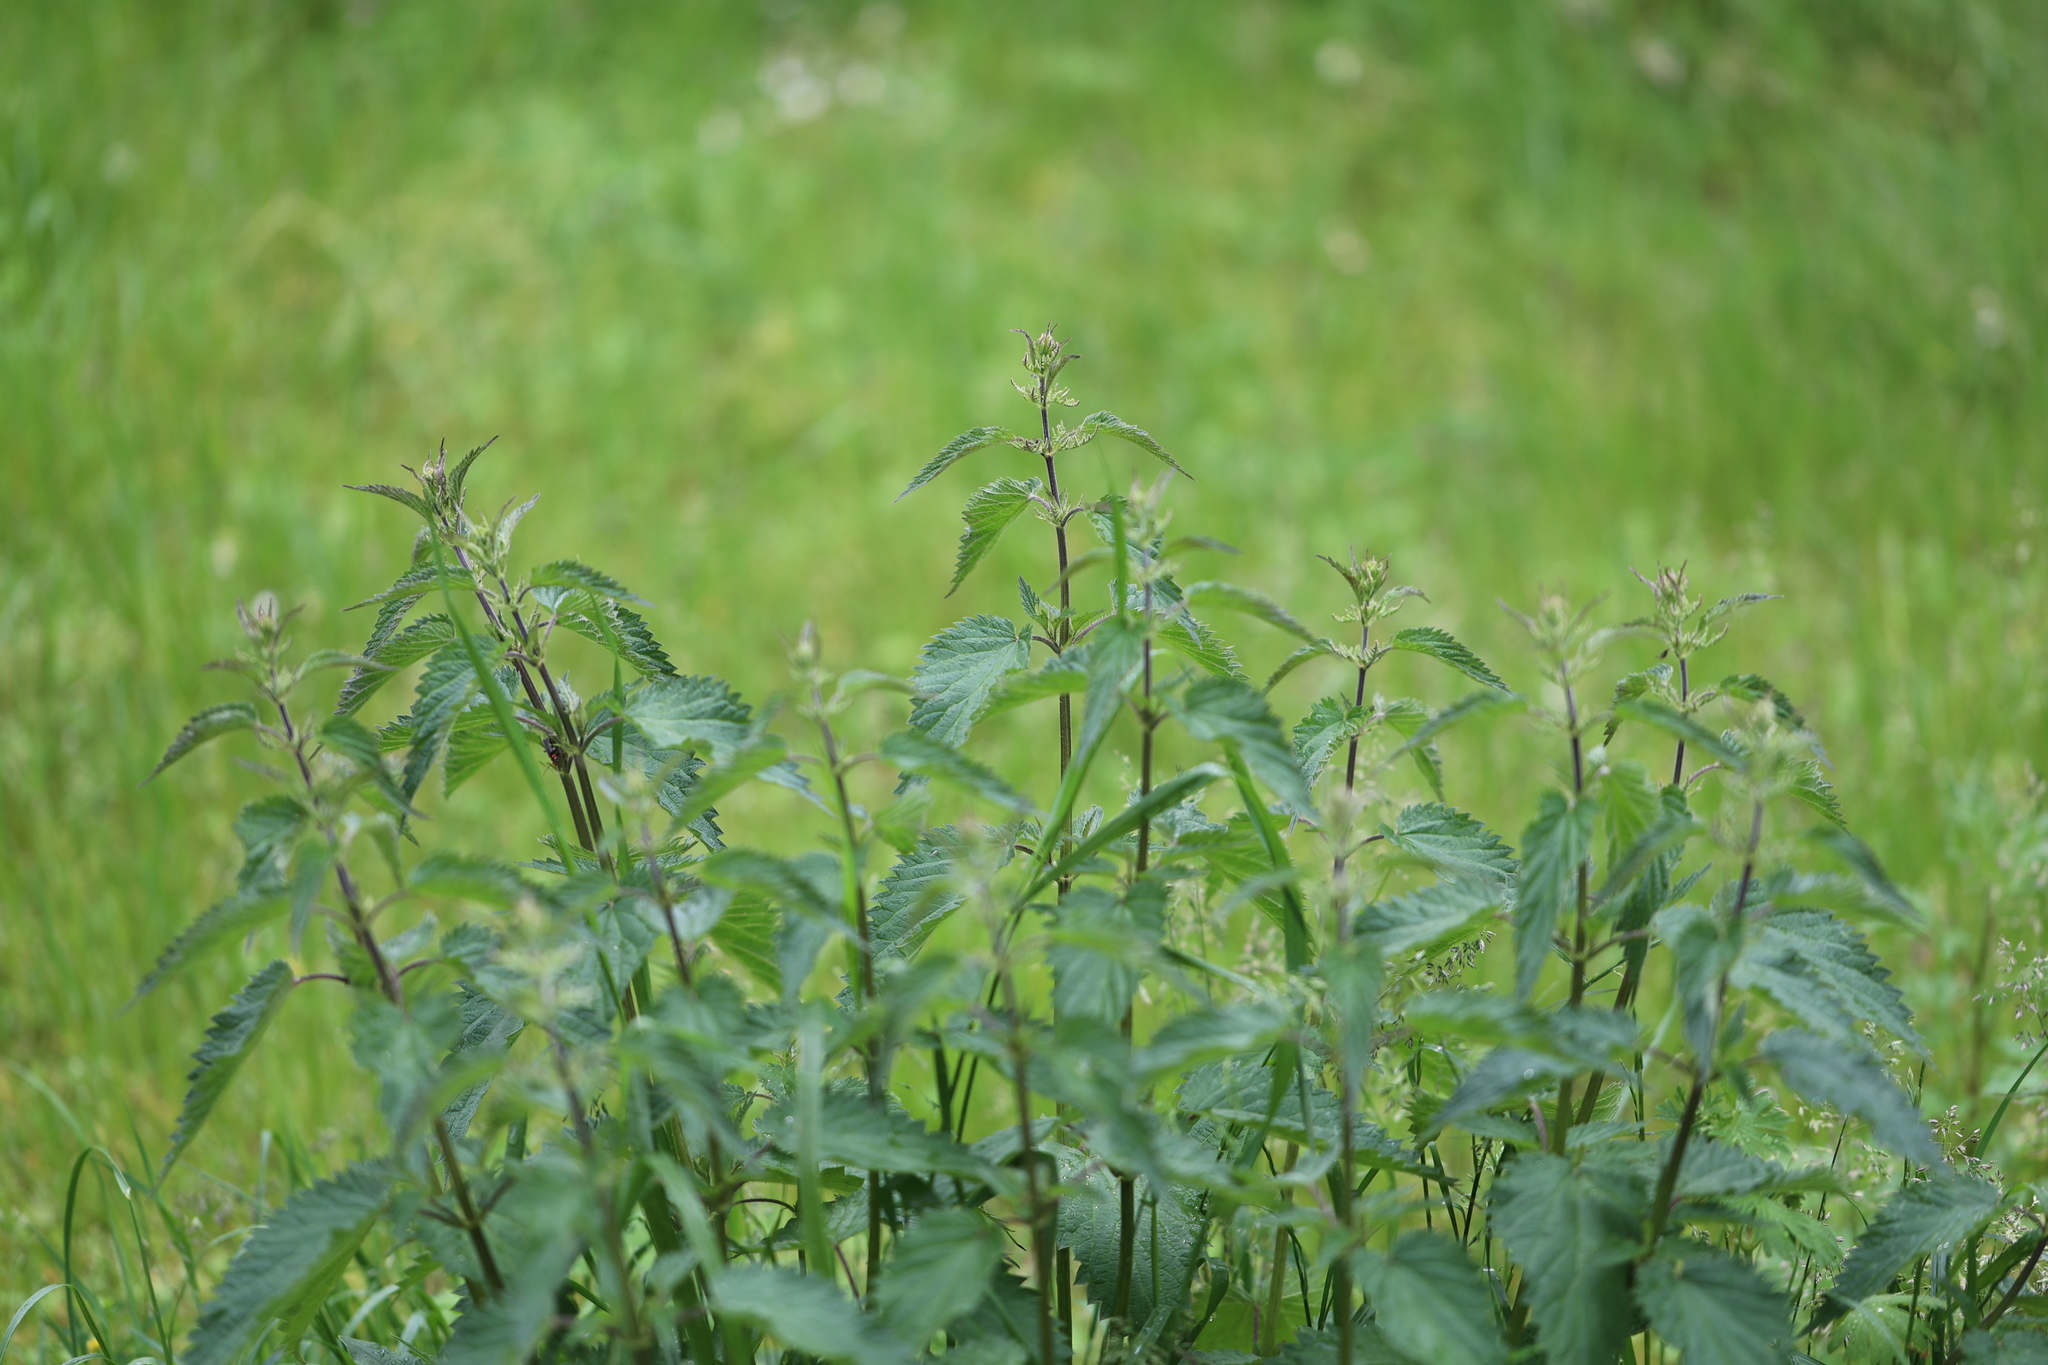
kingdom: Plantae
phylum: Tracheophyta
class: Magnoliopsida
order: Rosales
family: Urticaceae
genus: Urtica
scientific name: Urtica dioica
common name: Common nettle
